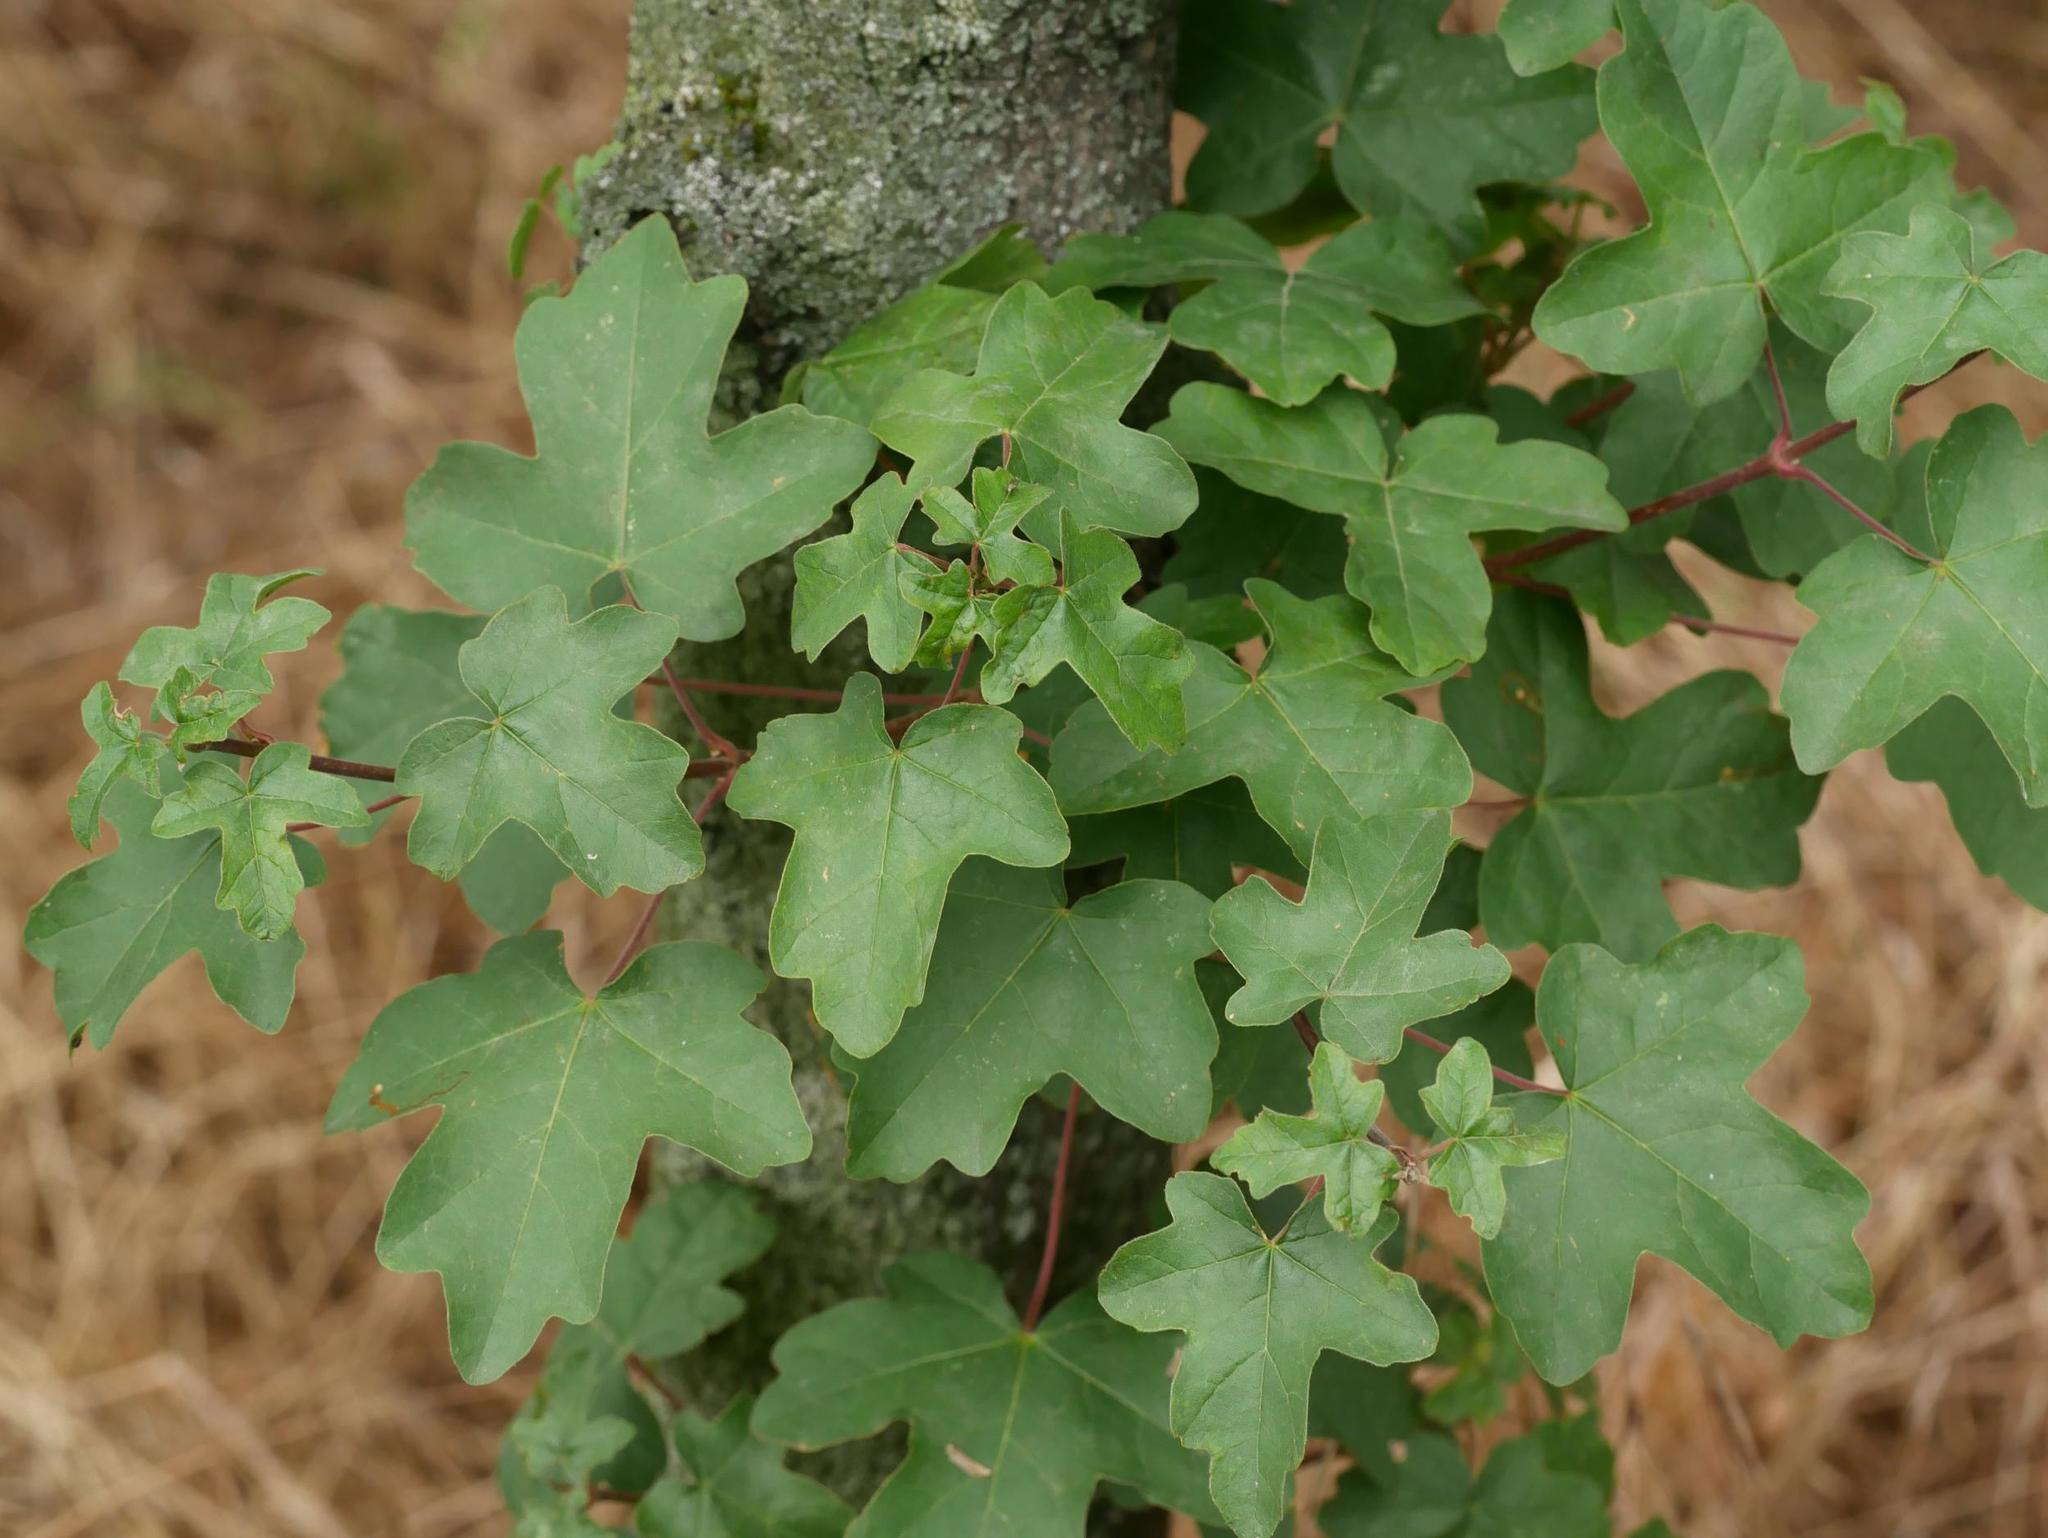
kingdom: Plantae
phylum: Tracheophyta
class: Magnoliopsida
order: Sapindales
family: Sapindaceae
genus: Acer
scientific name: Acer campestre
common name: Field maple
